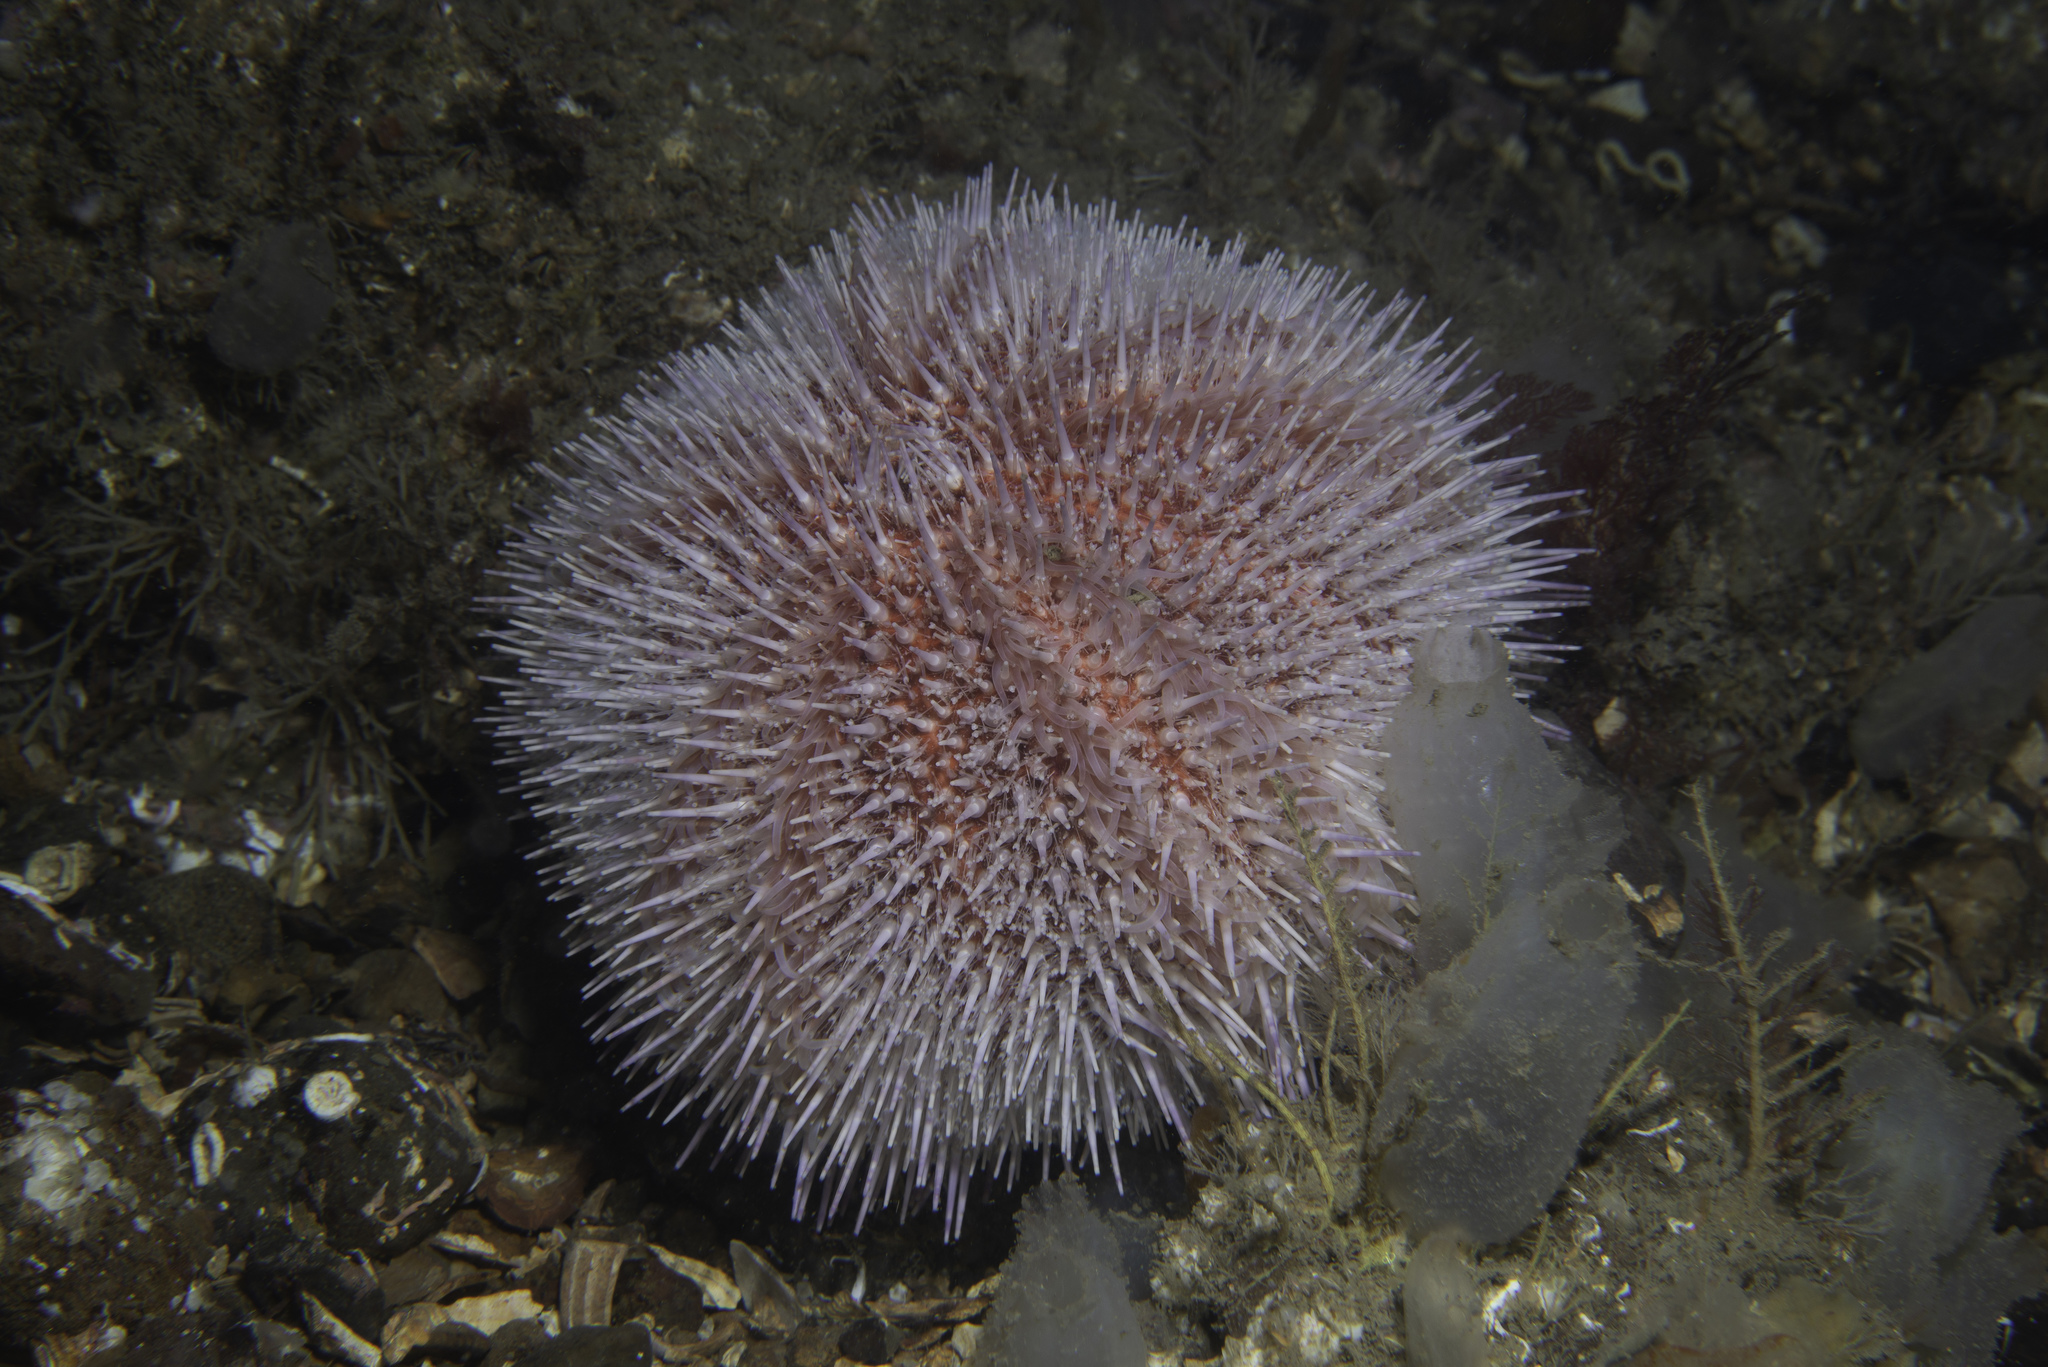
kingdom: Animalia
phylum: Echinodermata
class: Echinoidea
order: Camarodonta
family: Echinidae
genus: Echinus
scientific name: Echinus esculentus
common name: Edible sea urchin
